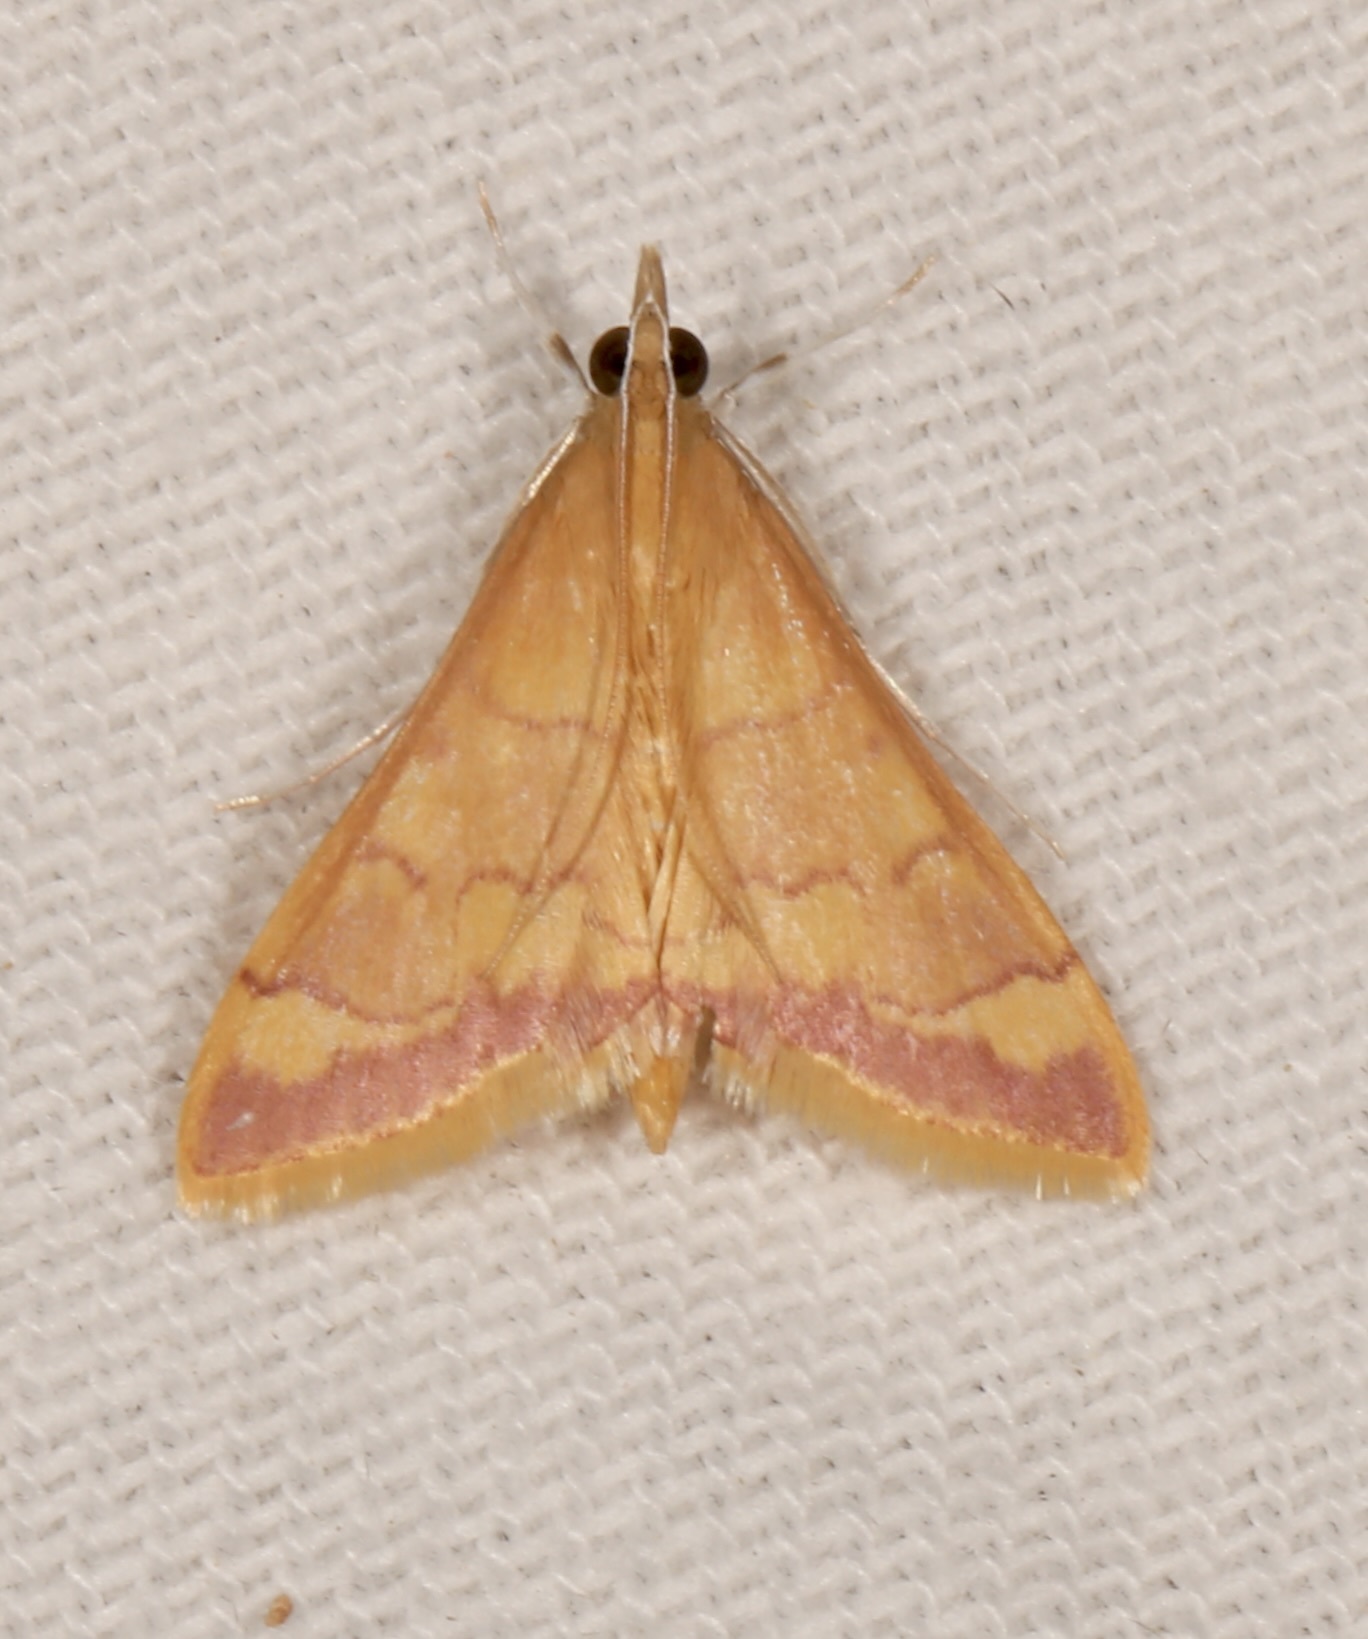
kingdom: Animalia
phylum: Arthropoda
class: Insecta
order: Lepidoptera
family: Crambidae
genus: Pyrausta
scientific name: Pyrausta pseudonythesalis
